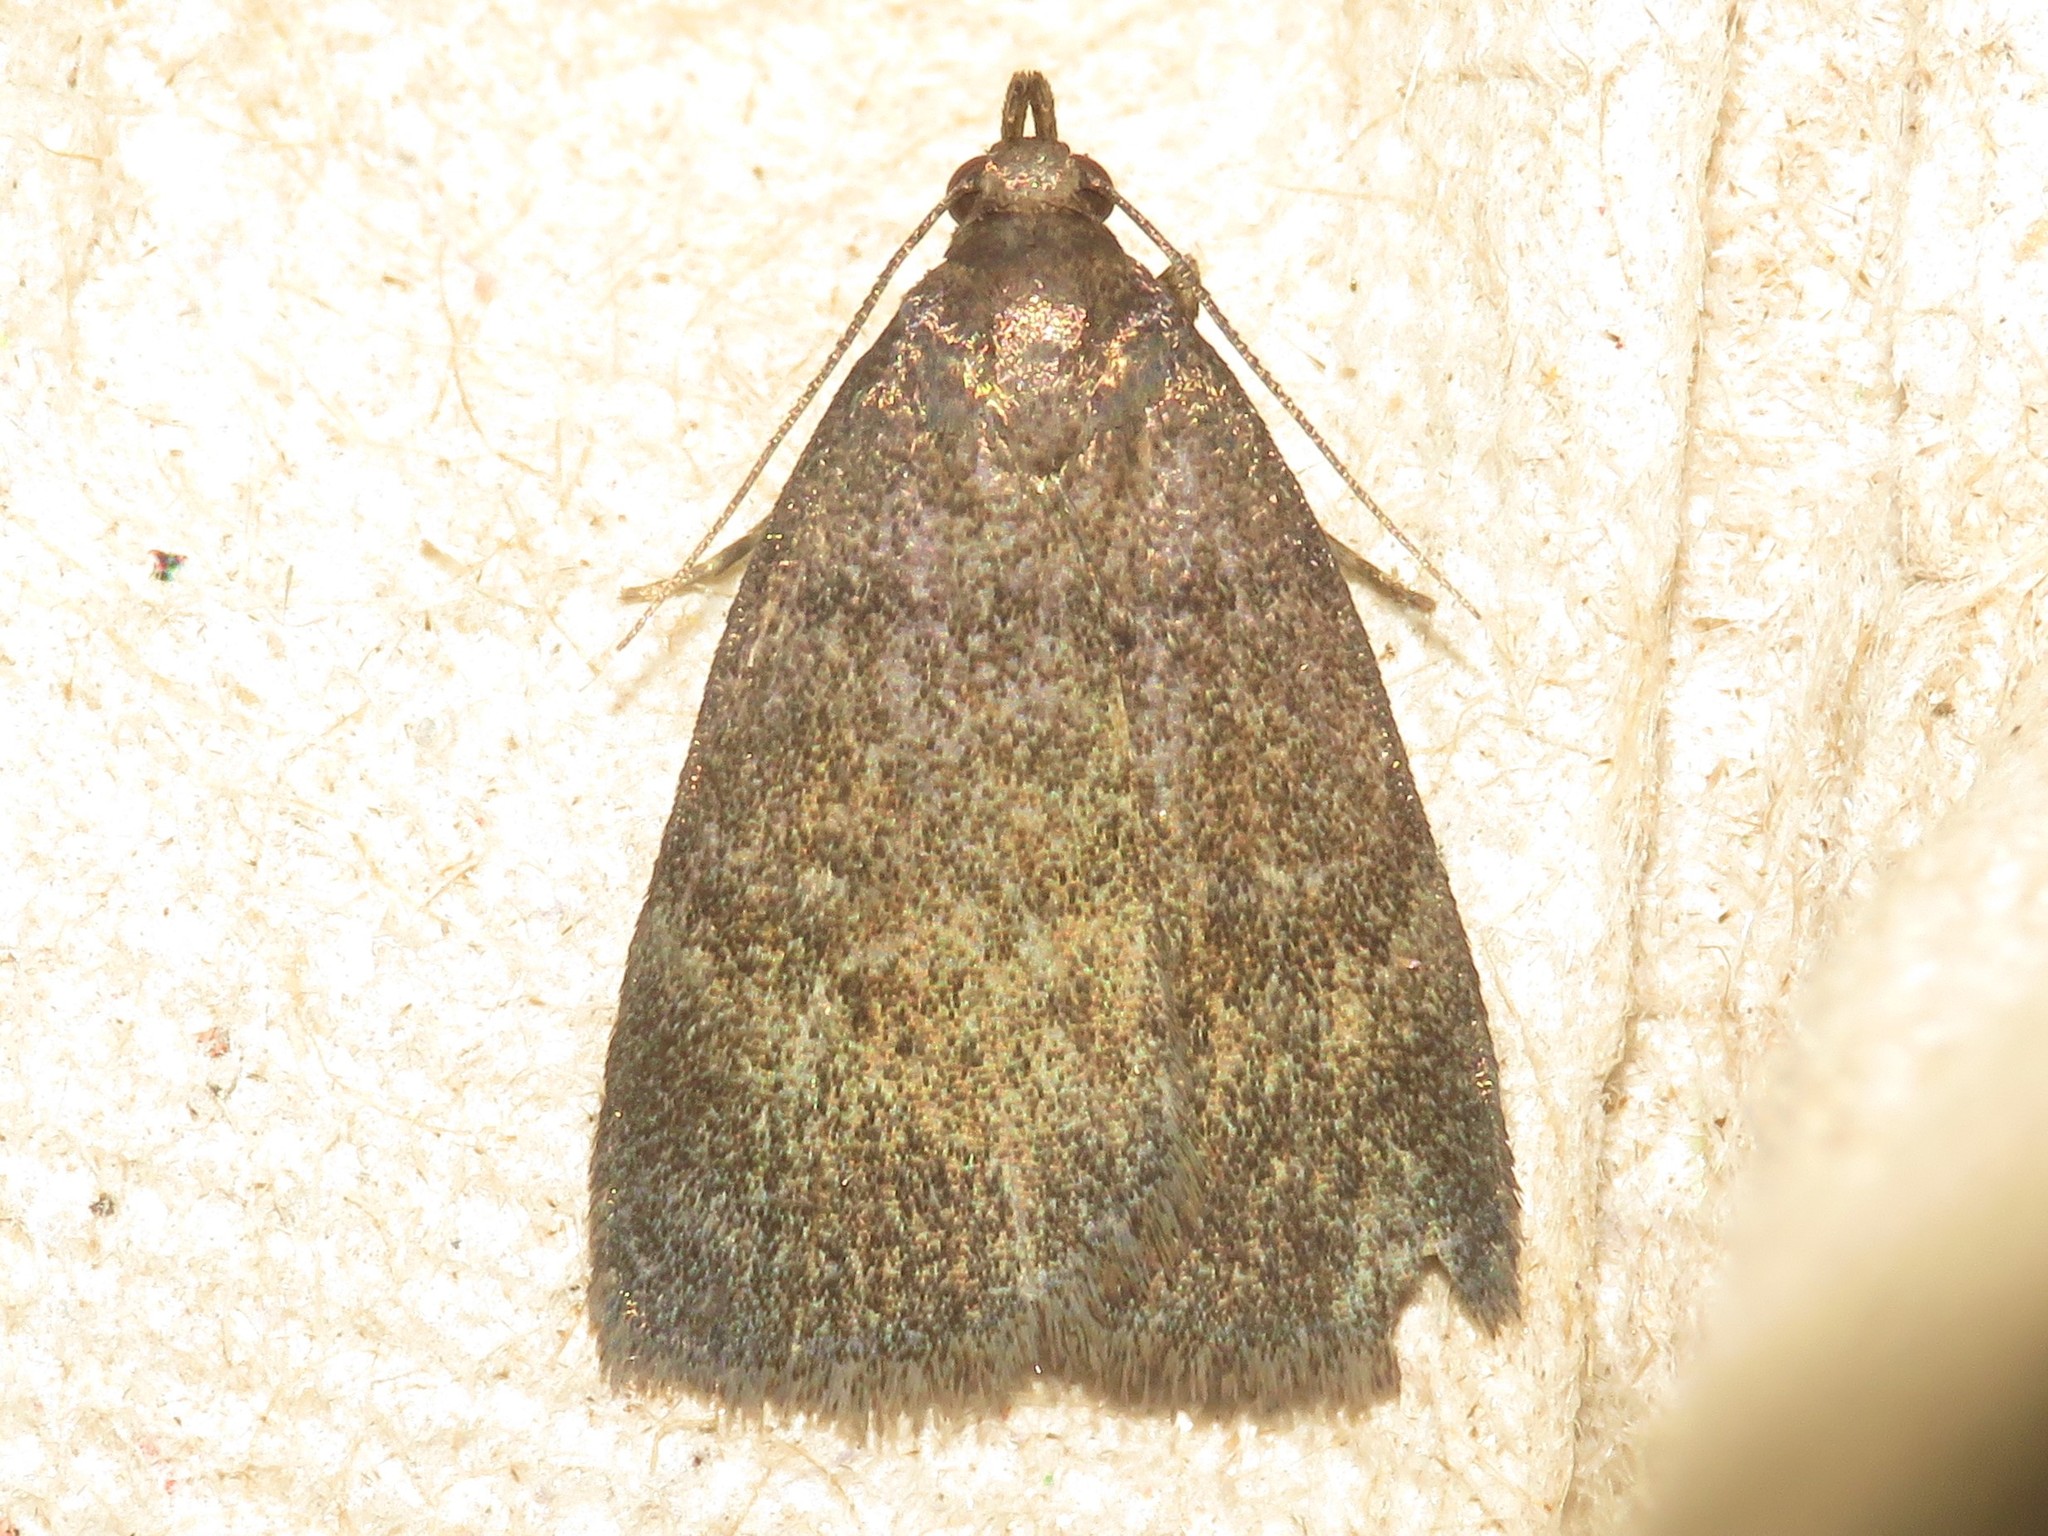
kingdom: Animalia
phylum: Arthropoda
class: Insecta
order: Lepidoptera
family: Erebidae
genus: Idia
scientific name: Idia rotundalis
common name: Rotund idia moth
